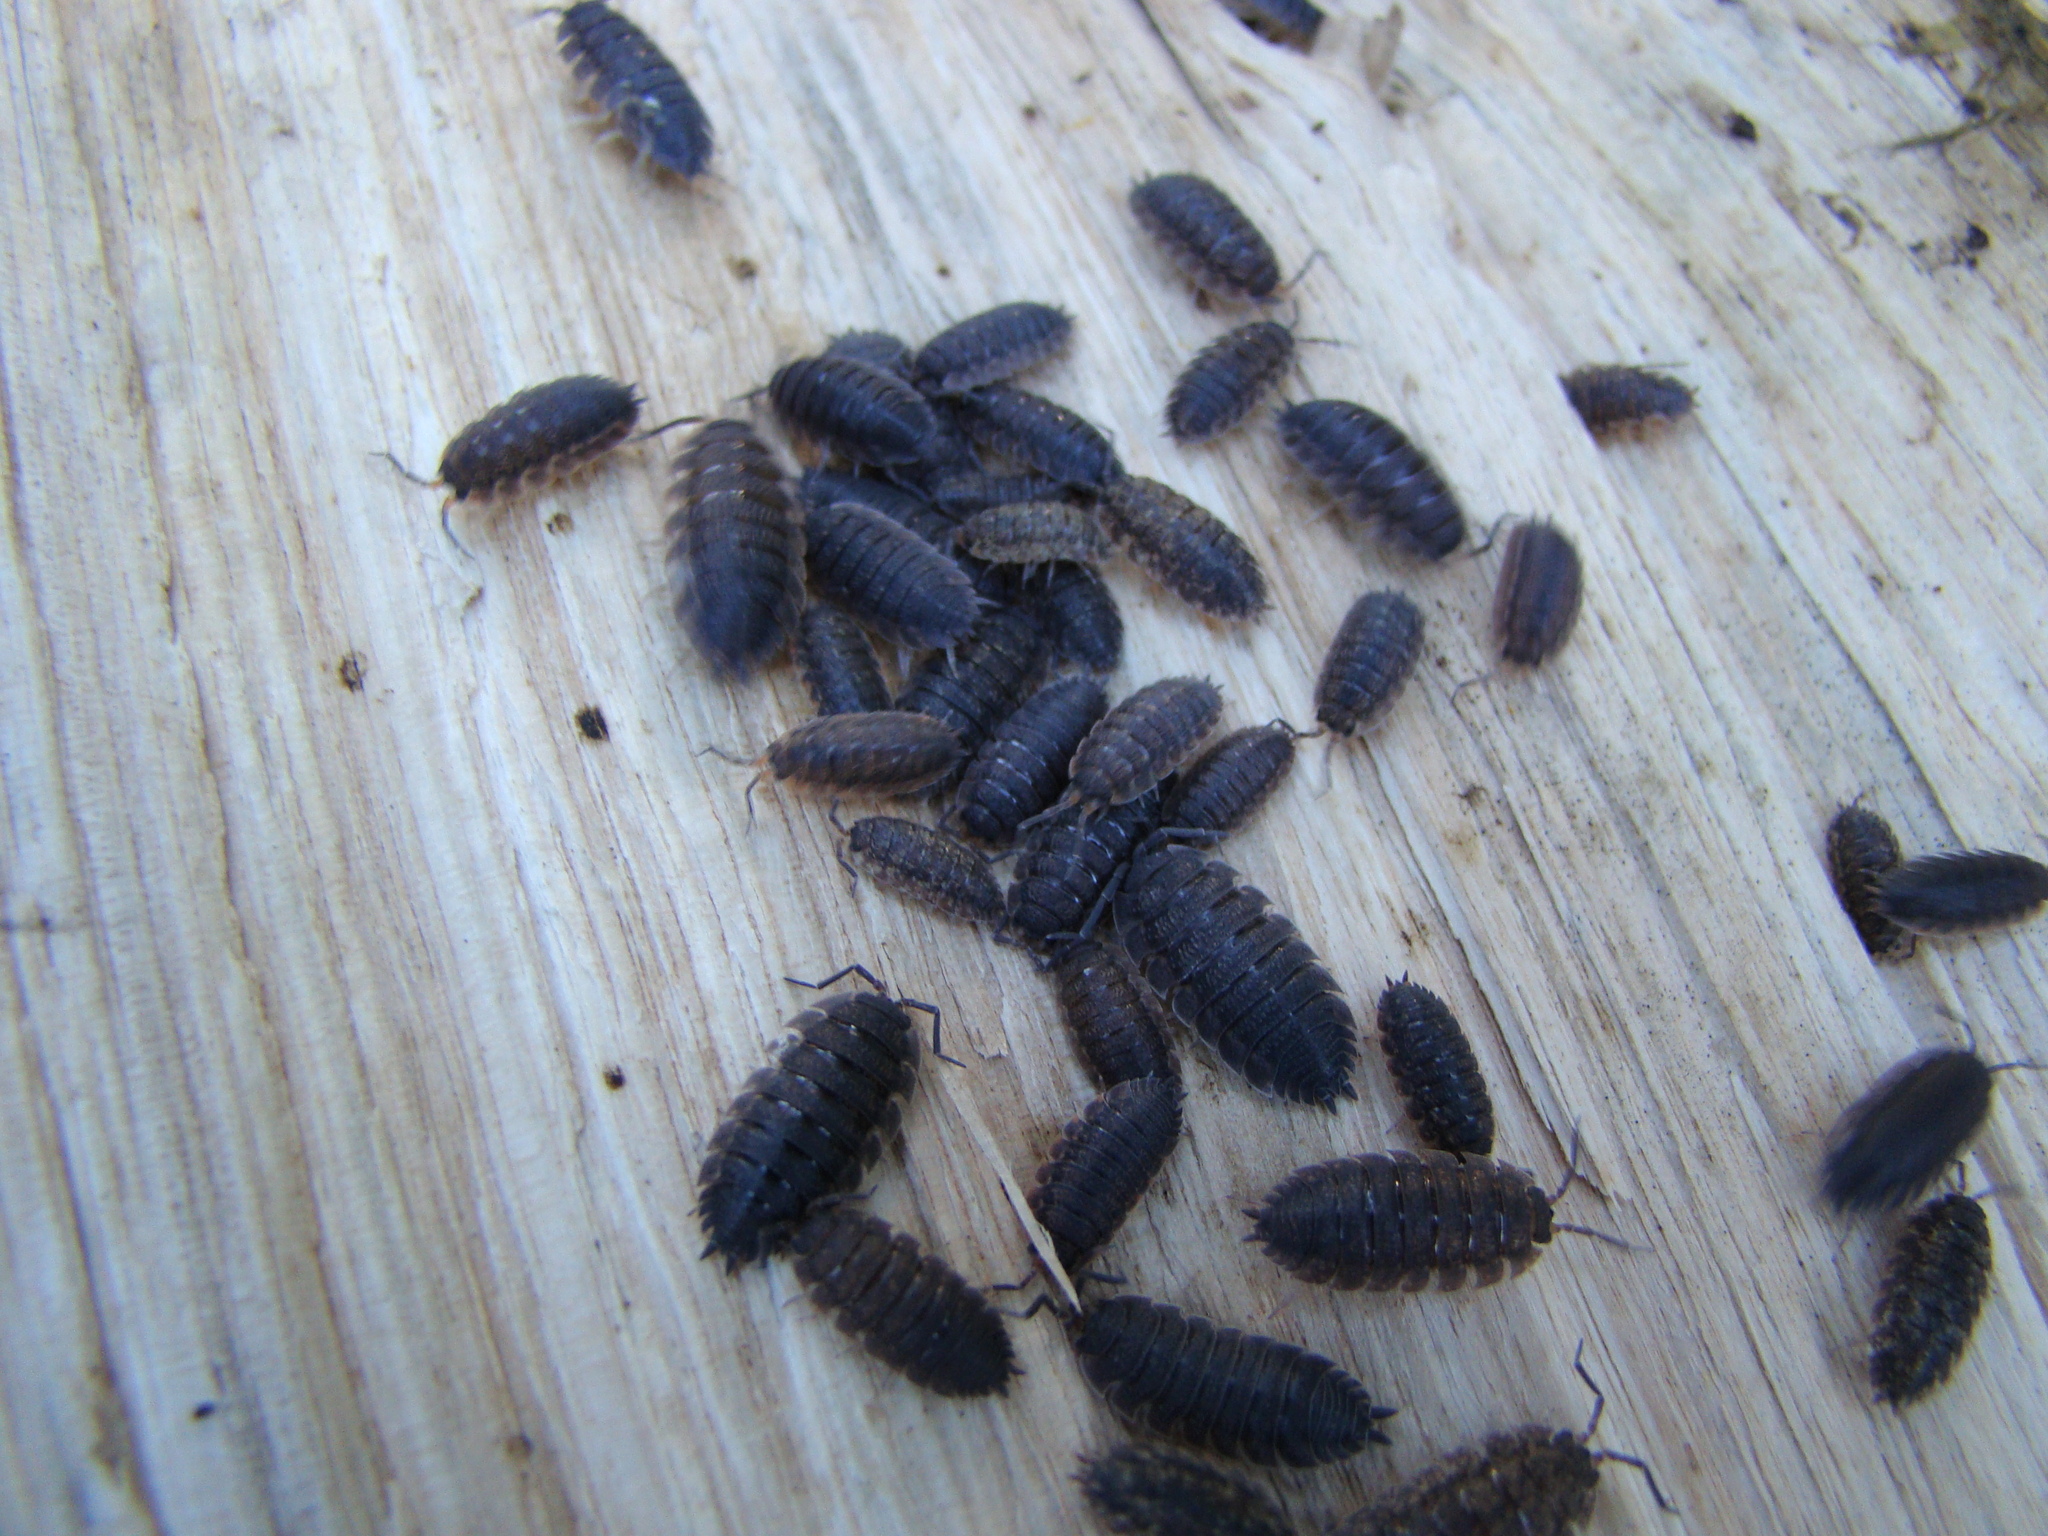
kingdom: Animalia
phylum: Arthropoda
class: Malacostraca
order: Isopoda
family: Porcellionidae
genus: Porcellio
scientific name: Porcellio scaber
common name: Common rough woodlouse
